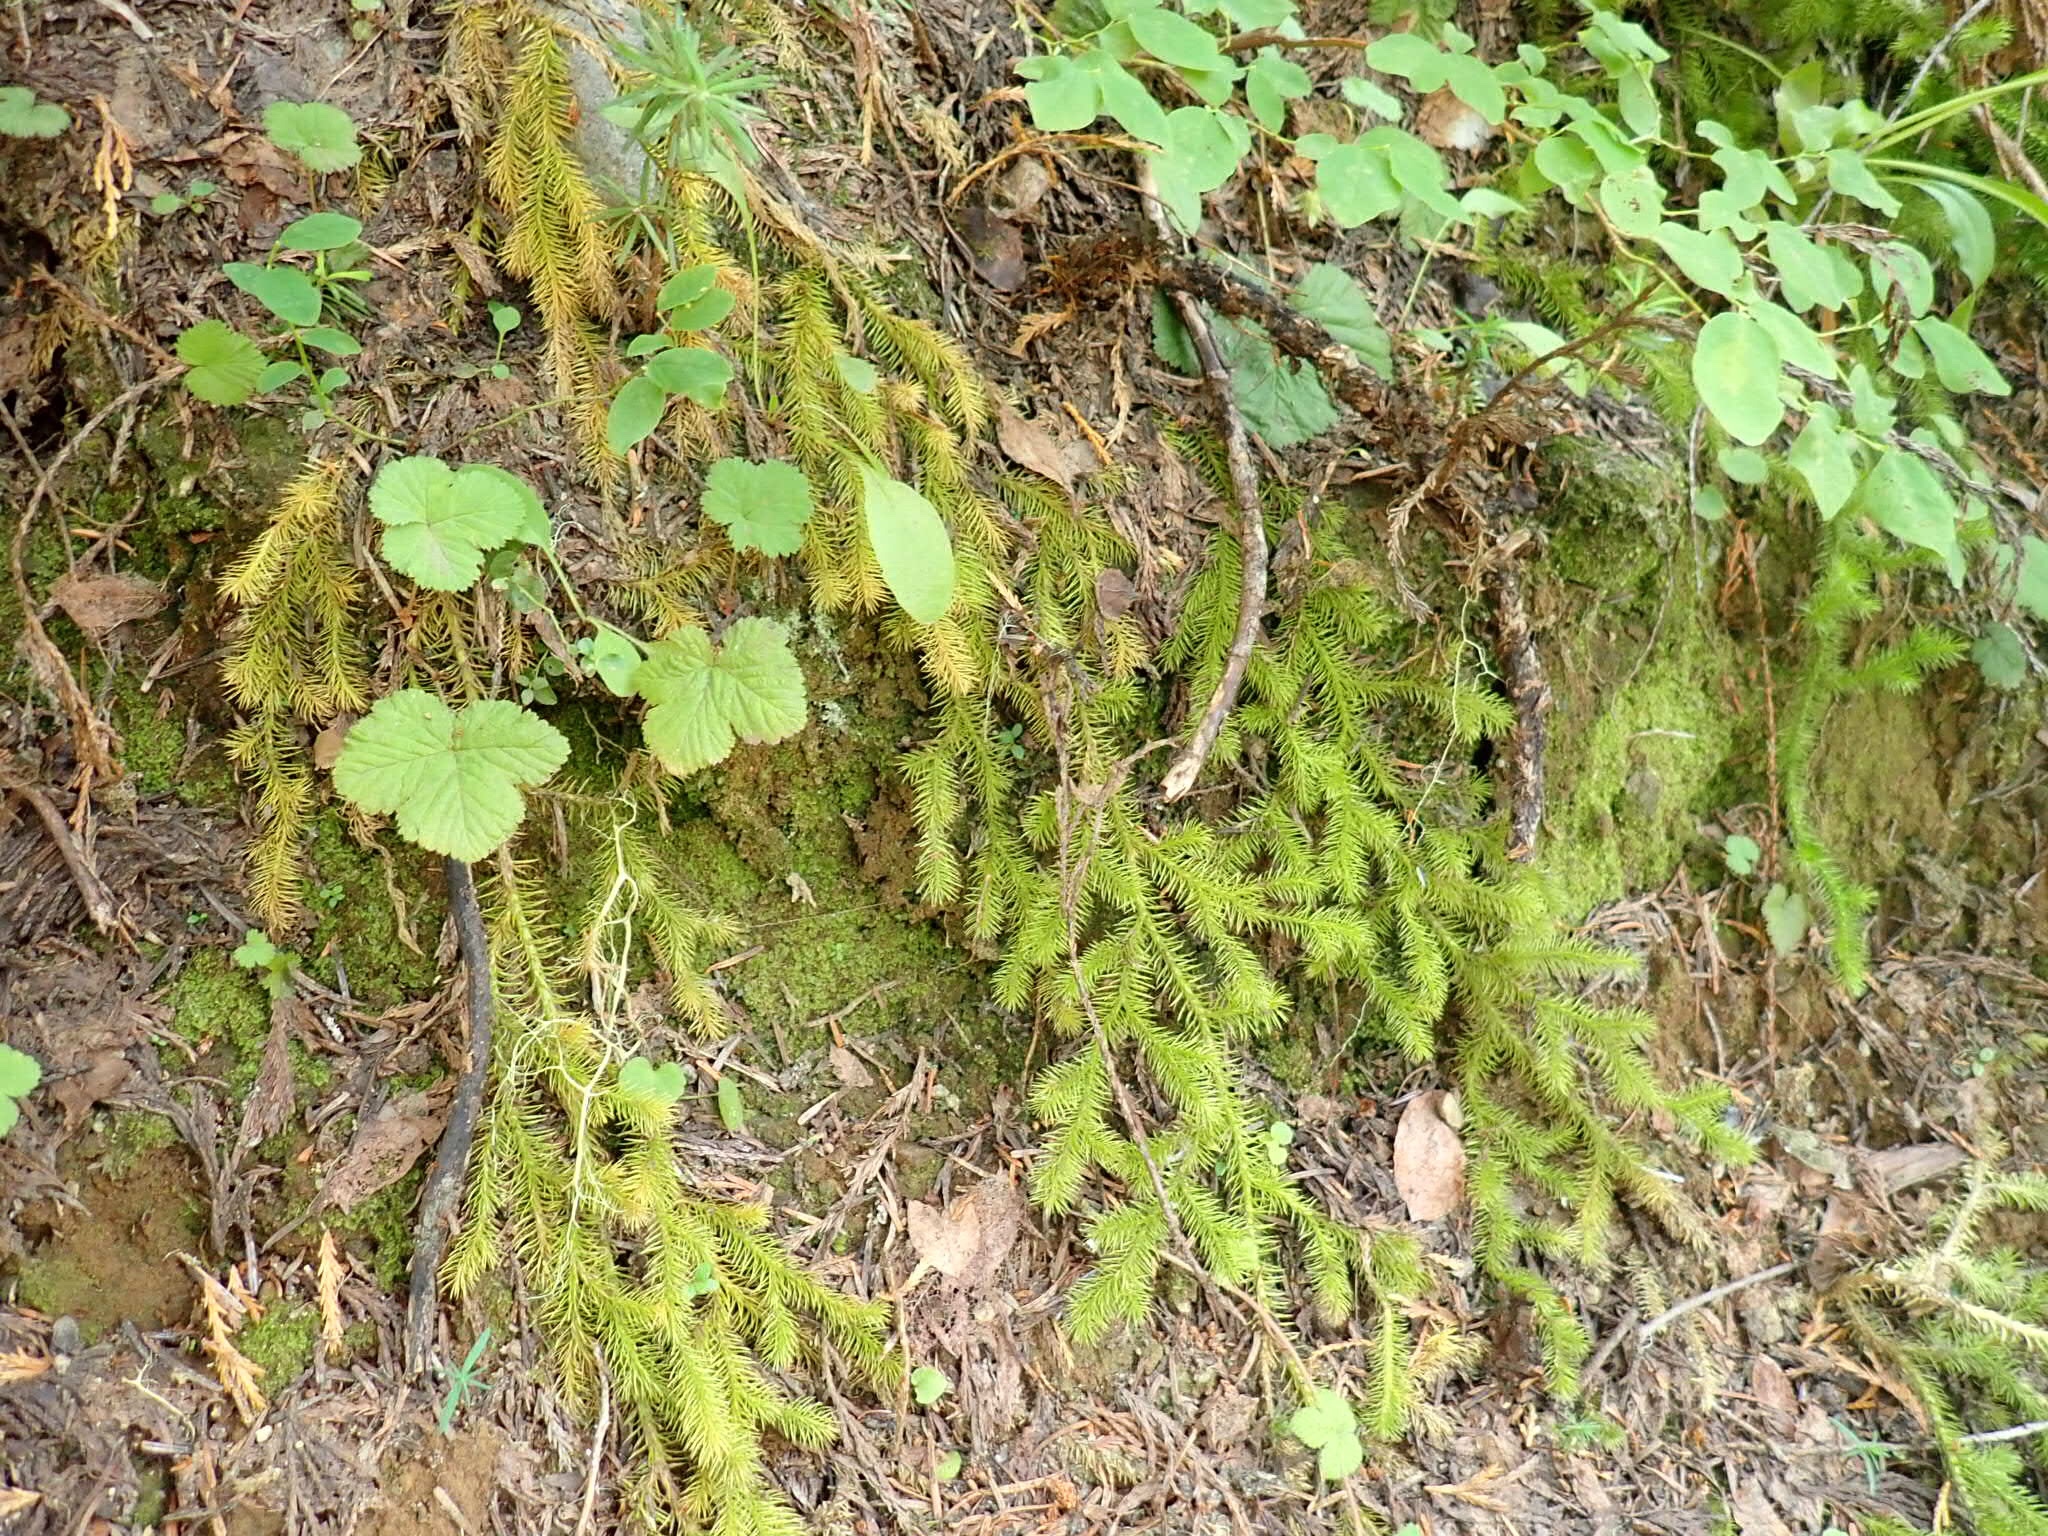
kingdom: Plantae
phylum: Tracheophyta
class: Lycopodiopsida
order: Lycopodiales
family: Lycopodiaceae
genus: Lycopodium
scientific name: Lycopodium clavatum
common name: Stag's-horn clubmoss
